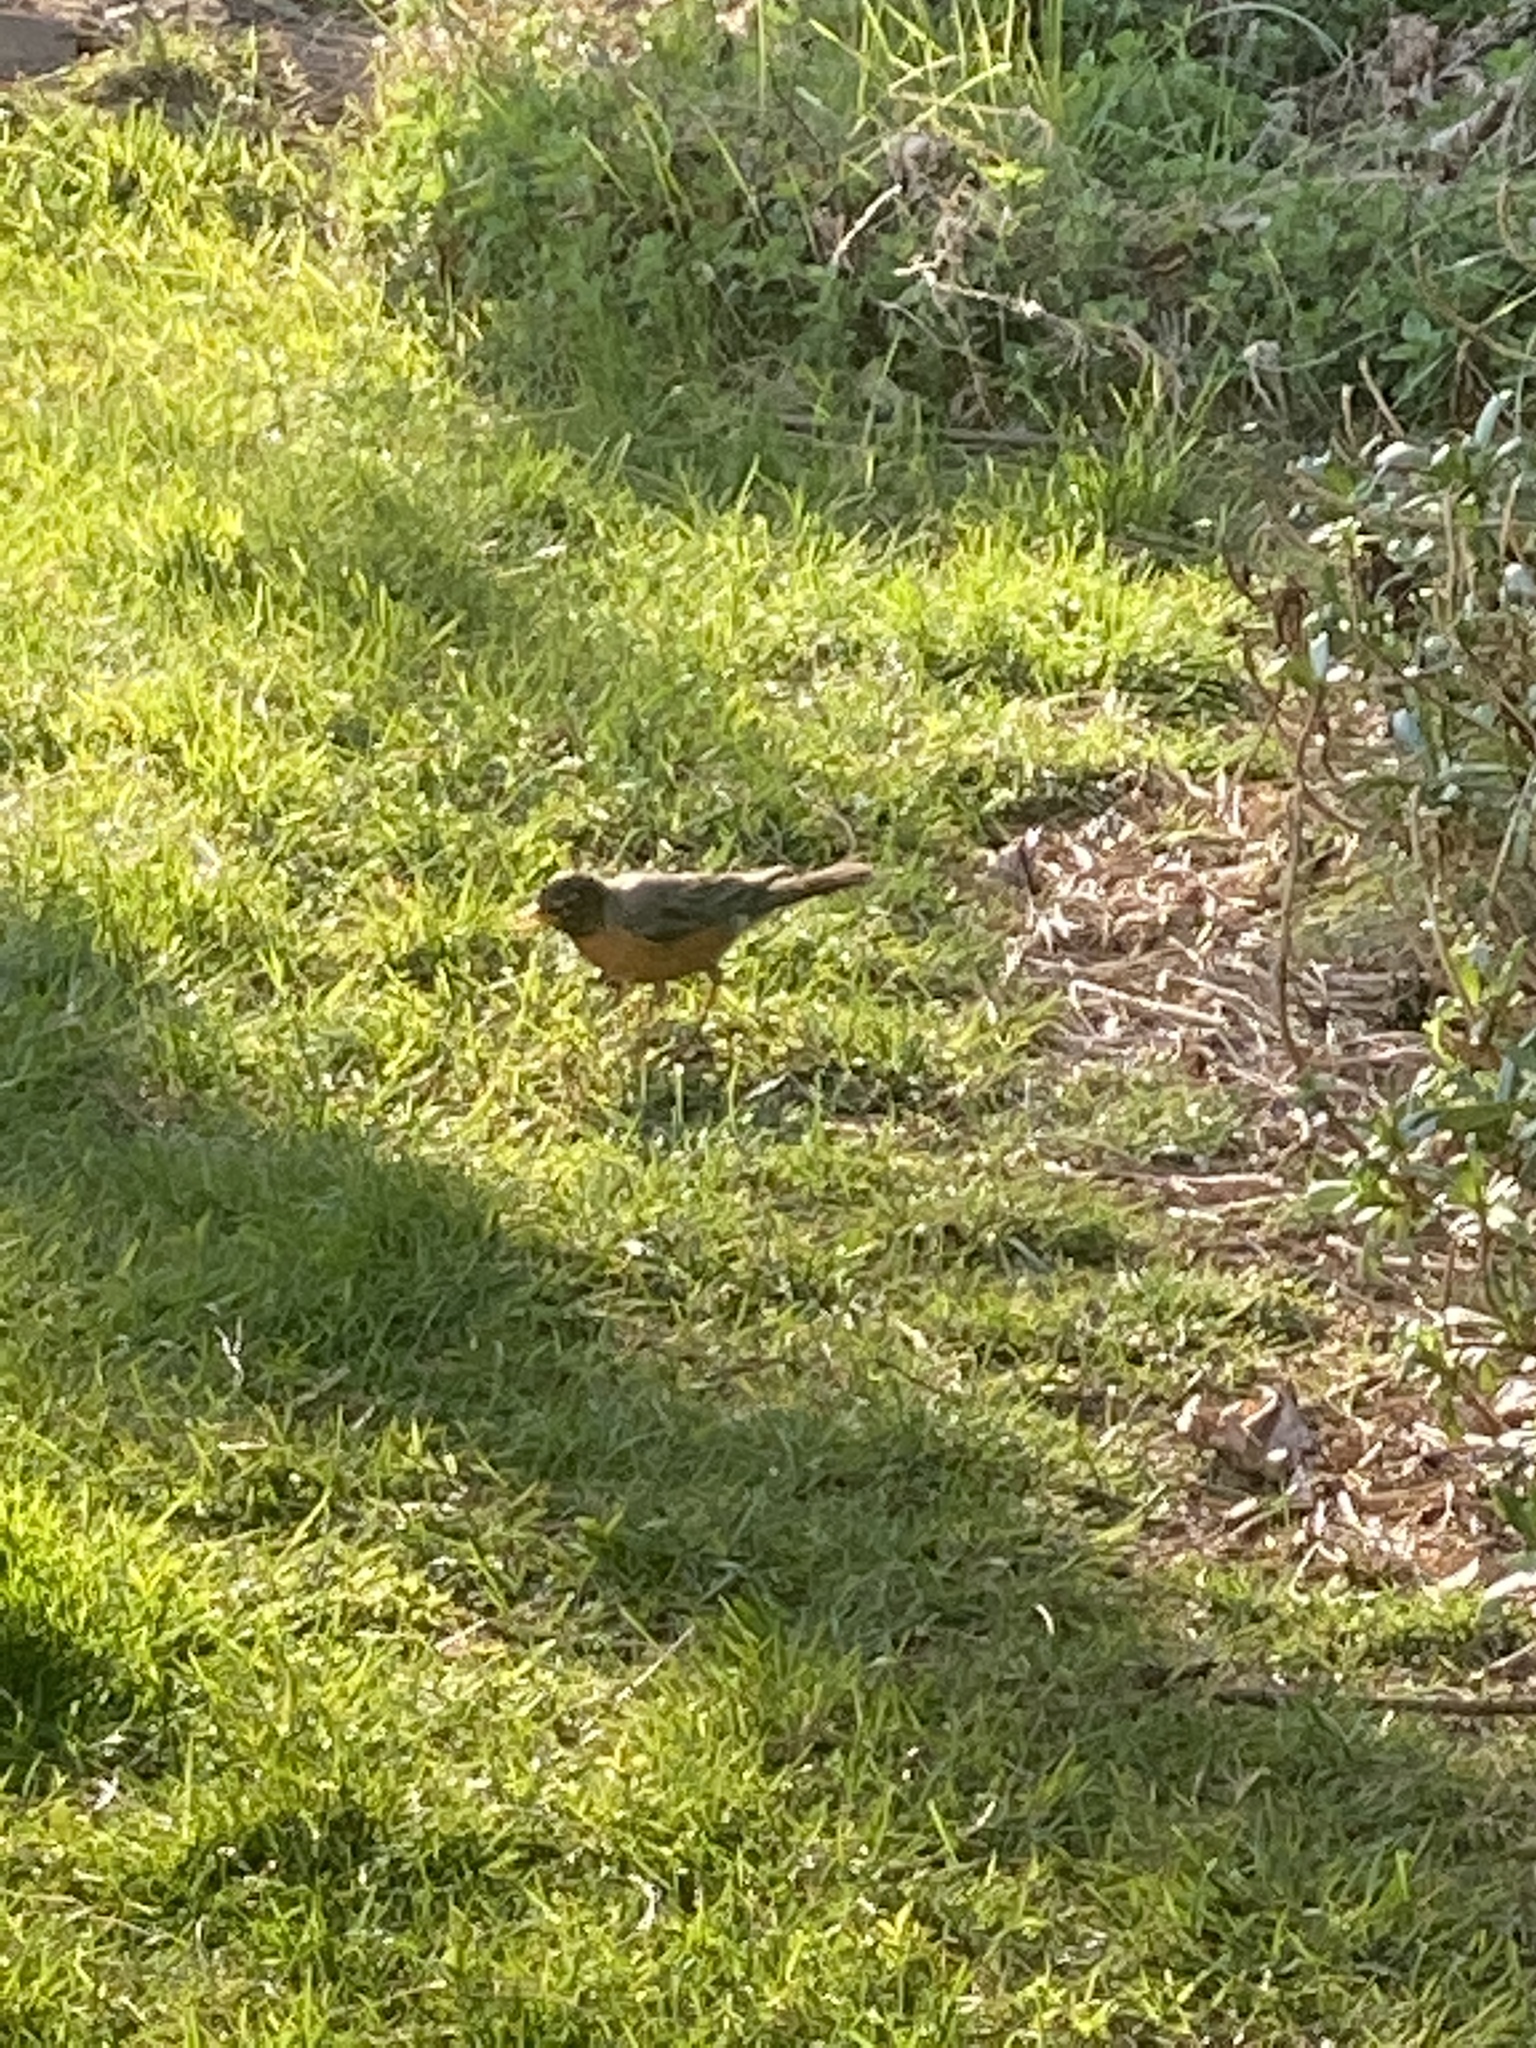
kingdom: Animalia
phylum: Chordata
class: Aves
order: Passeriformes
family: Turdidae
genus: Turdus
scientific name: Turdus migratorius
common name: American robin
